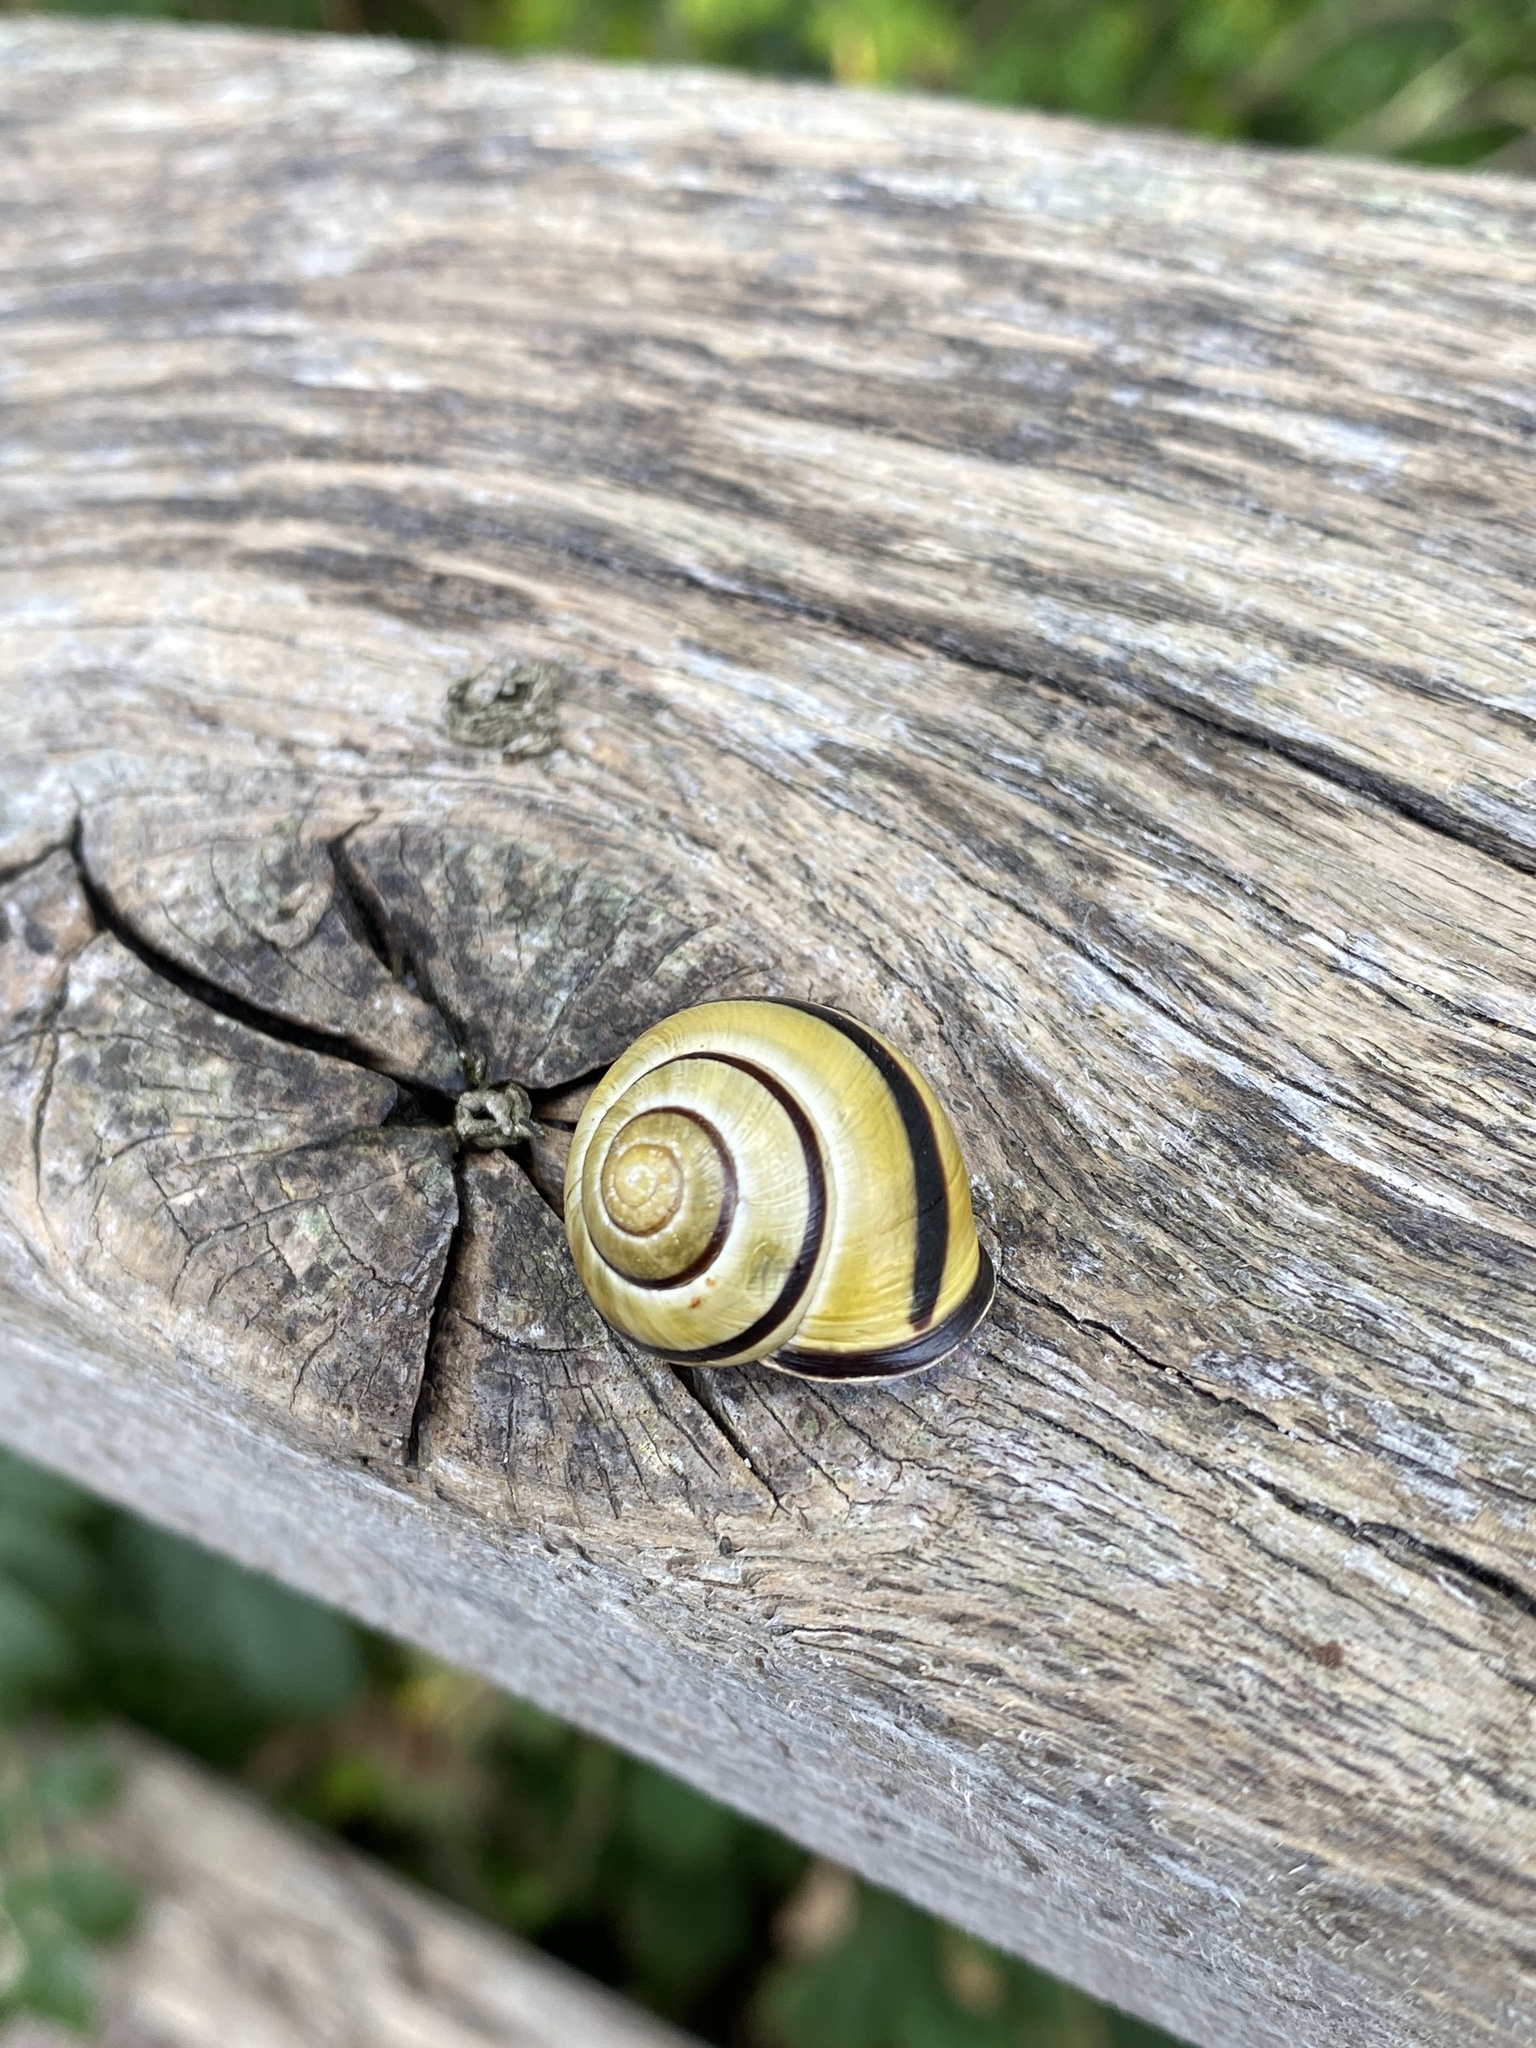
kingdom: Animalia
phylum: Mollusca
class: Gastropoda
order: Stylommatophora
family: Helicidae
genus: Cepaea
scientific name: Cepaea nemoralis
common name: Grovesnail
